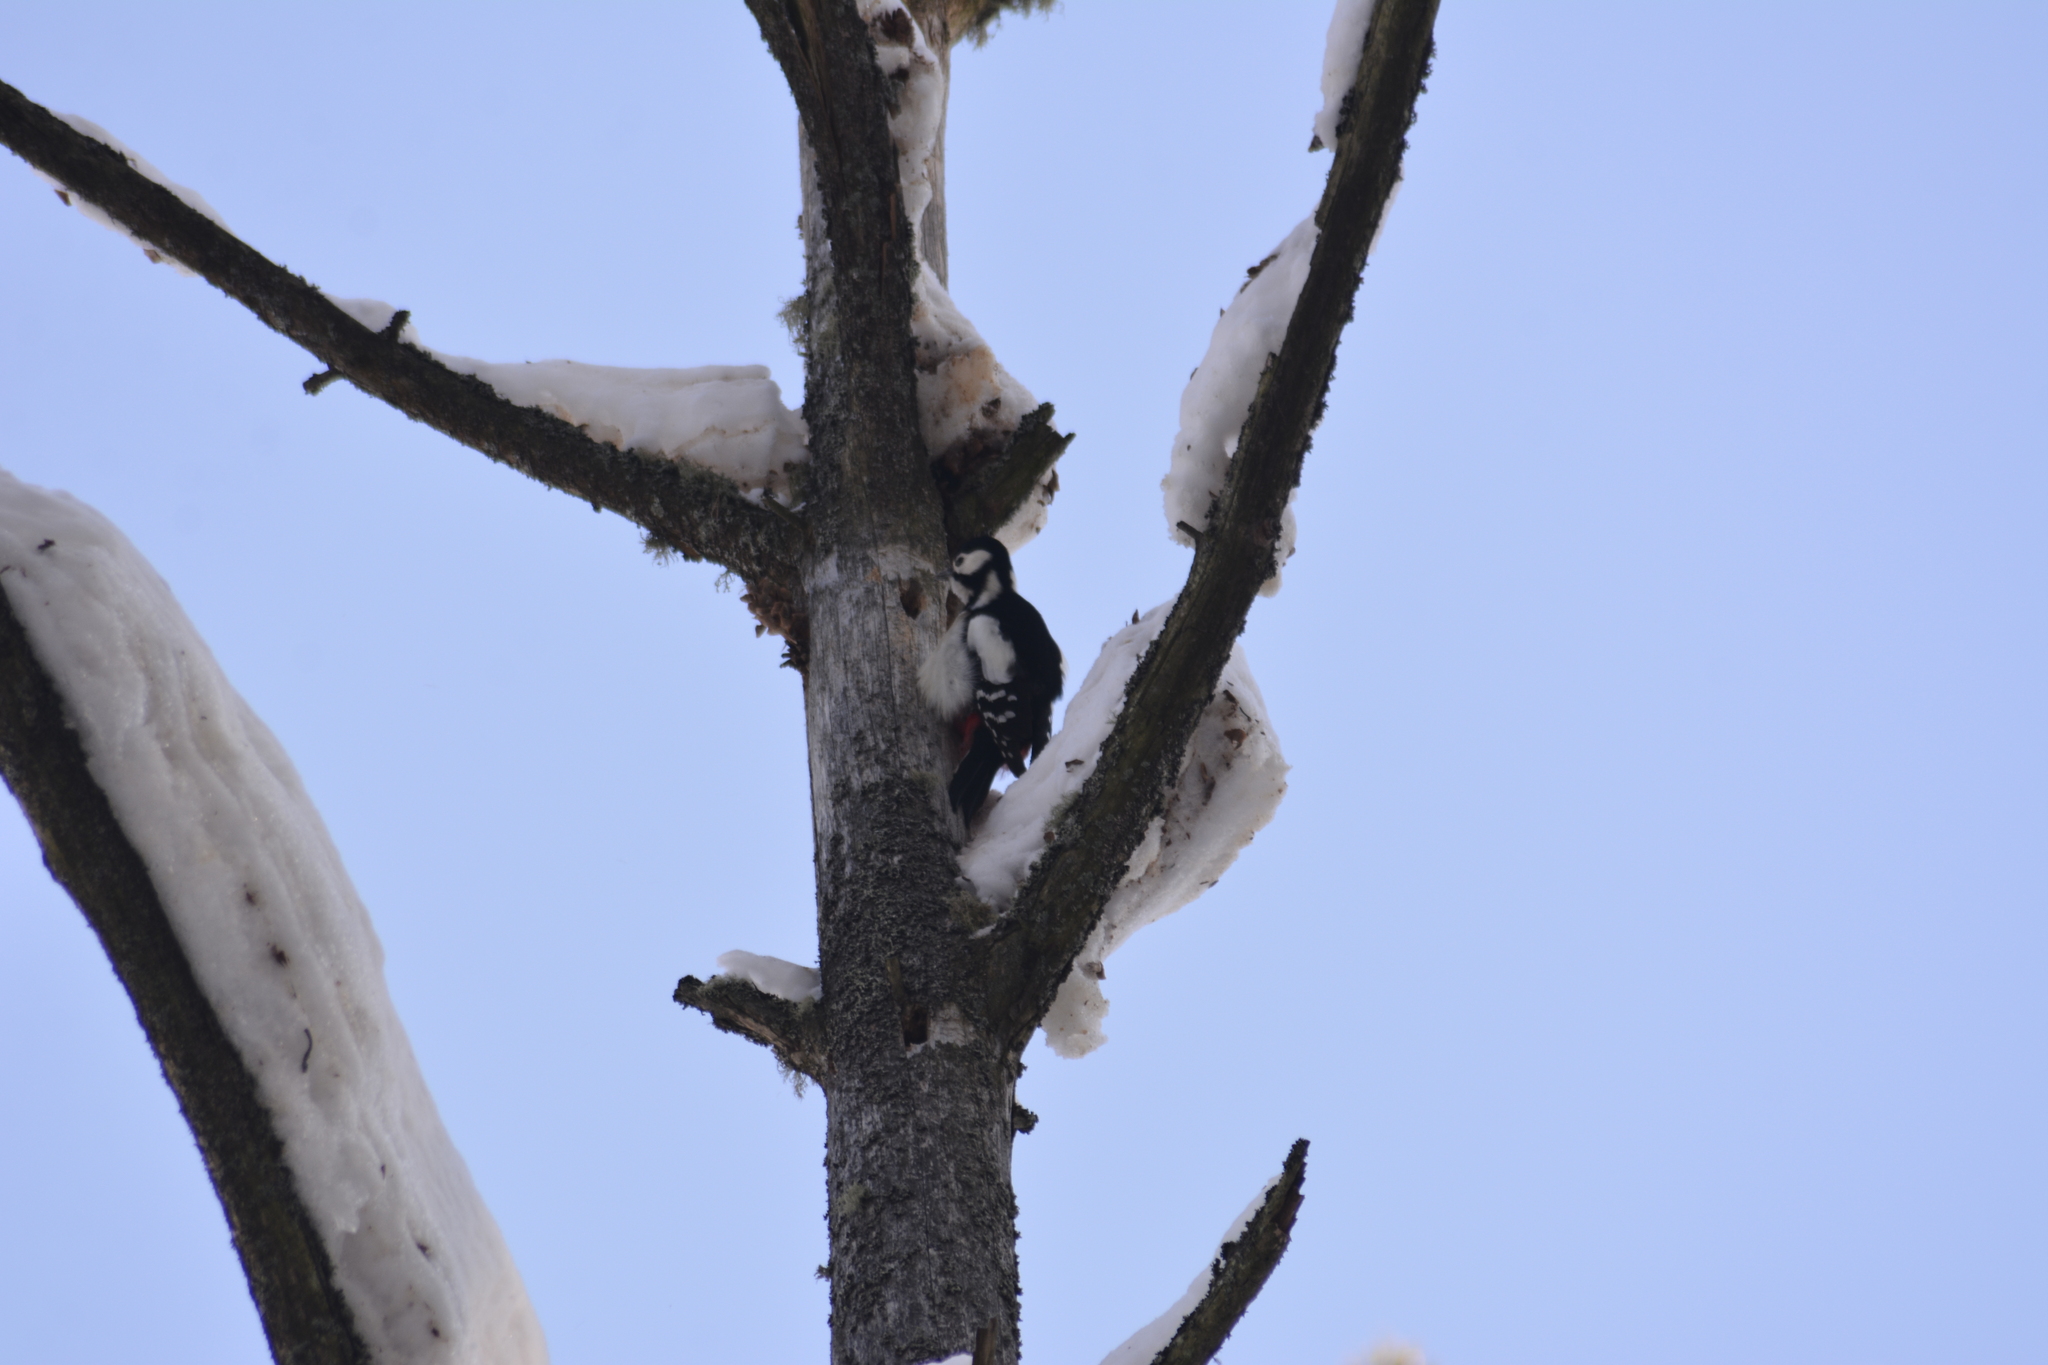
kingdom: Animalia
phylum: Chordata
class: Aves
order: Piciformes
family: Picidae
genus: Dendrocopos
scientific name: Dendrocopos major
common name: Great spotted woodpecker
